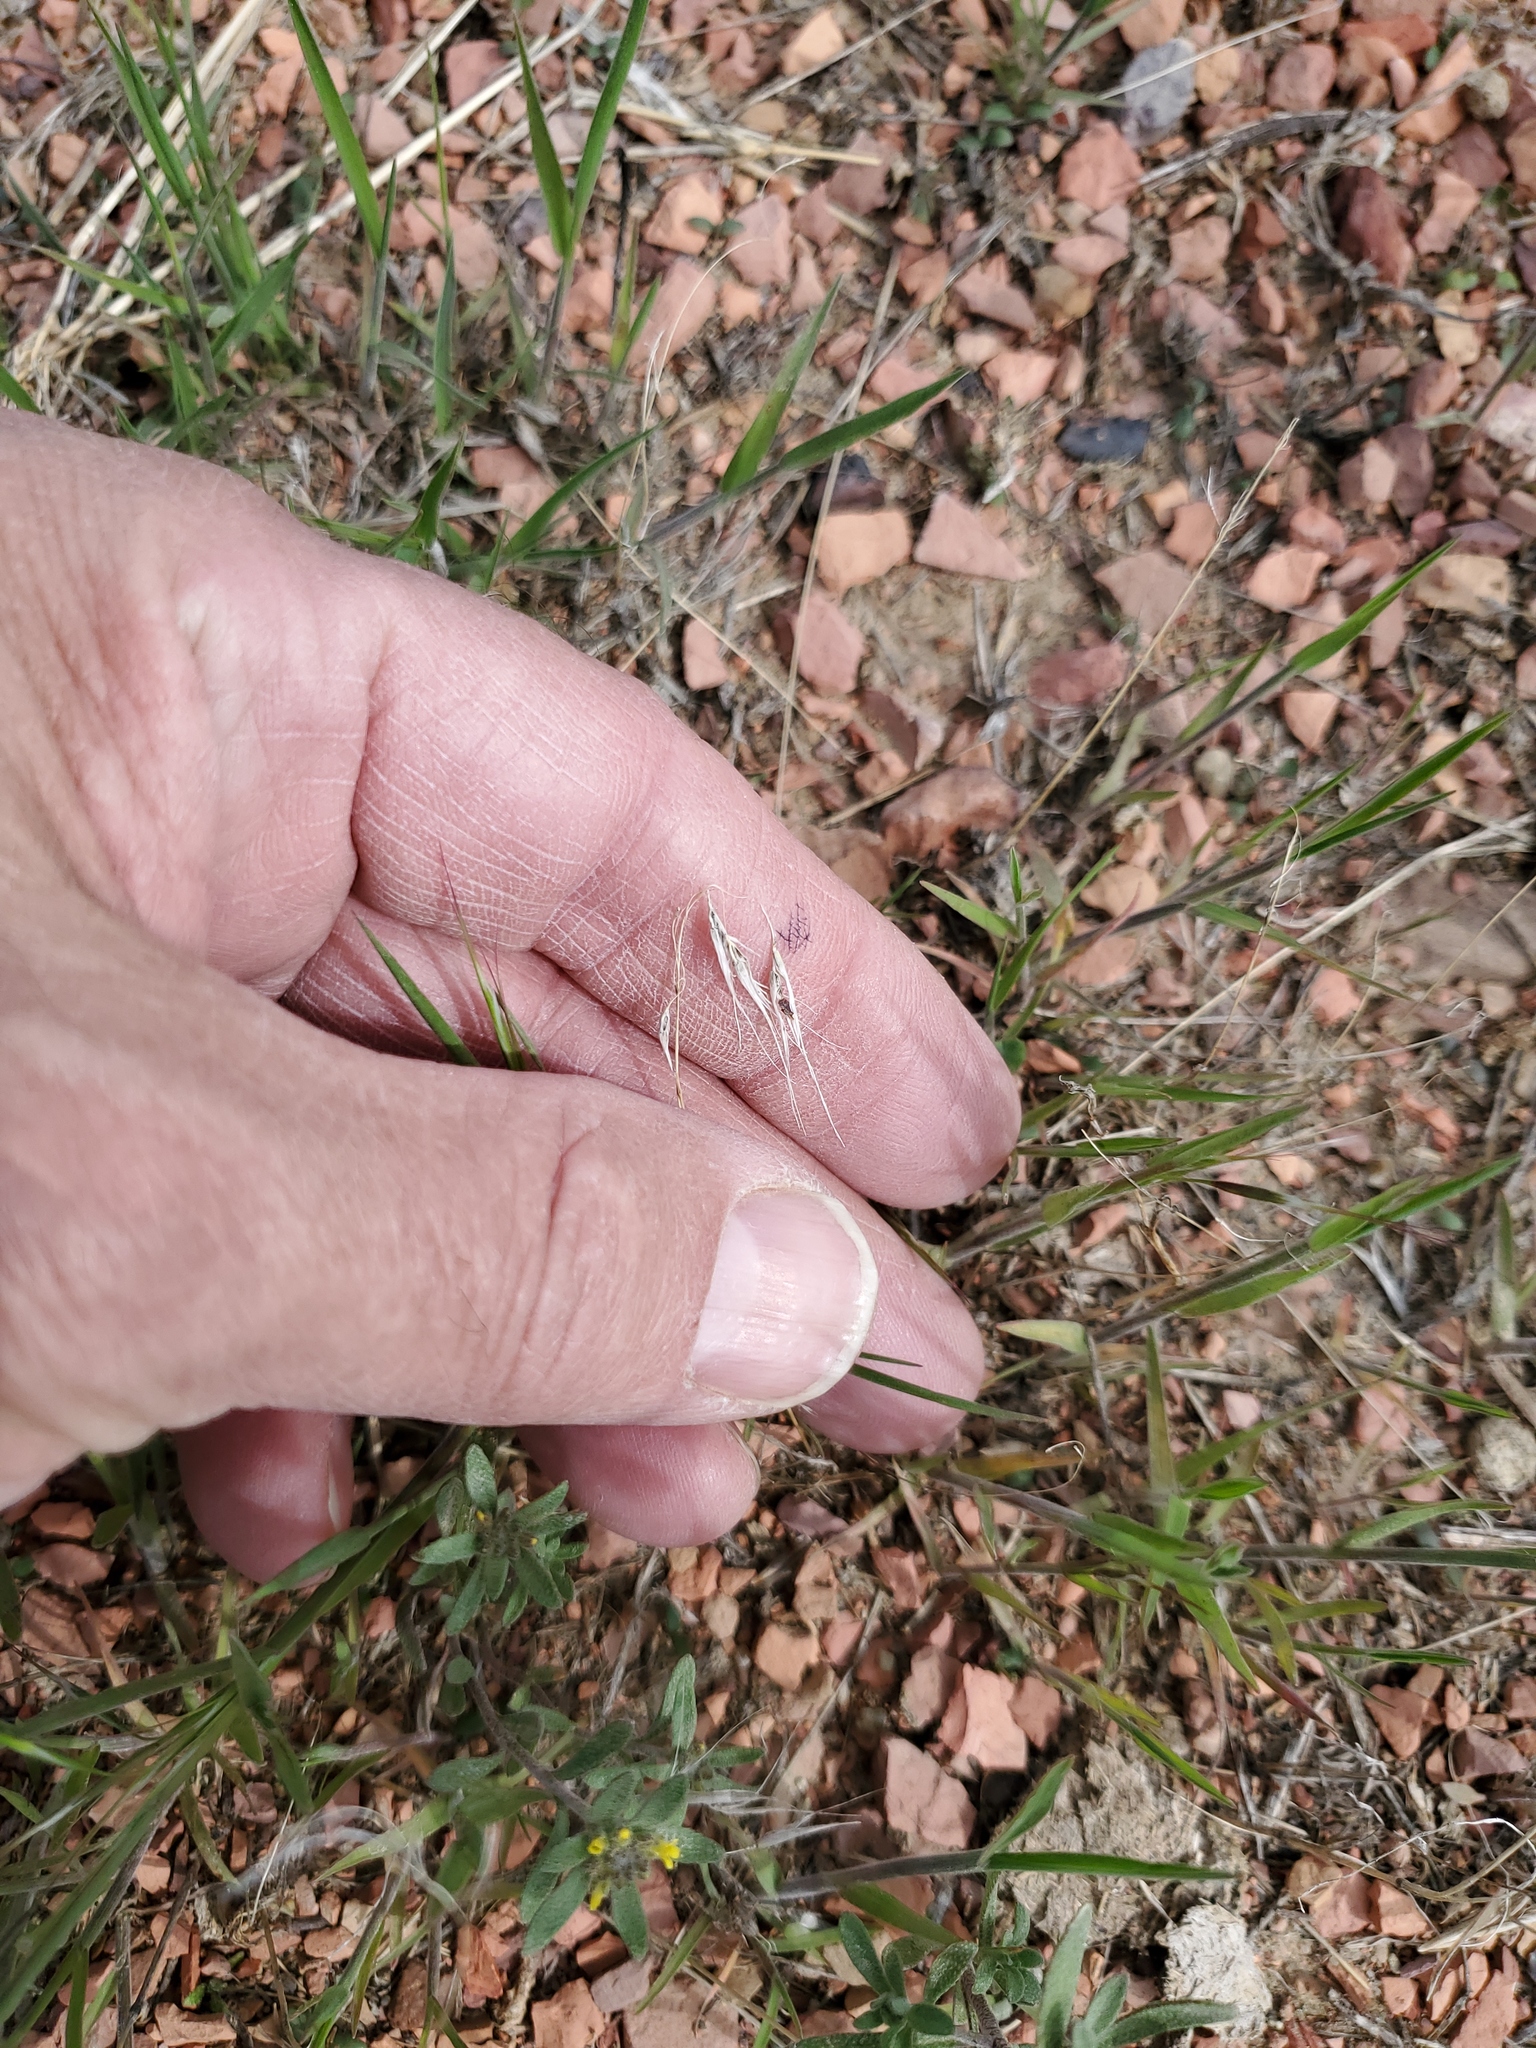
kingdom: Plantae
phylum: Tracheophyta
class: Liliopsida
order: Poales
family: Poaceae
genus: Bromus
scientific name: Bromus tectorum
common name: Cheatgrass
